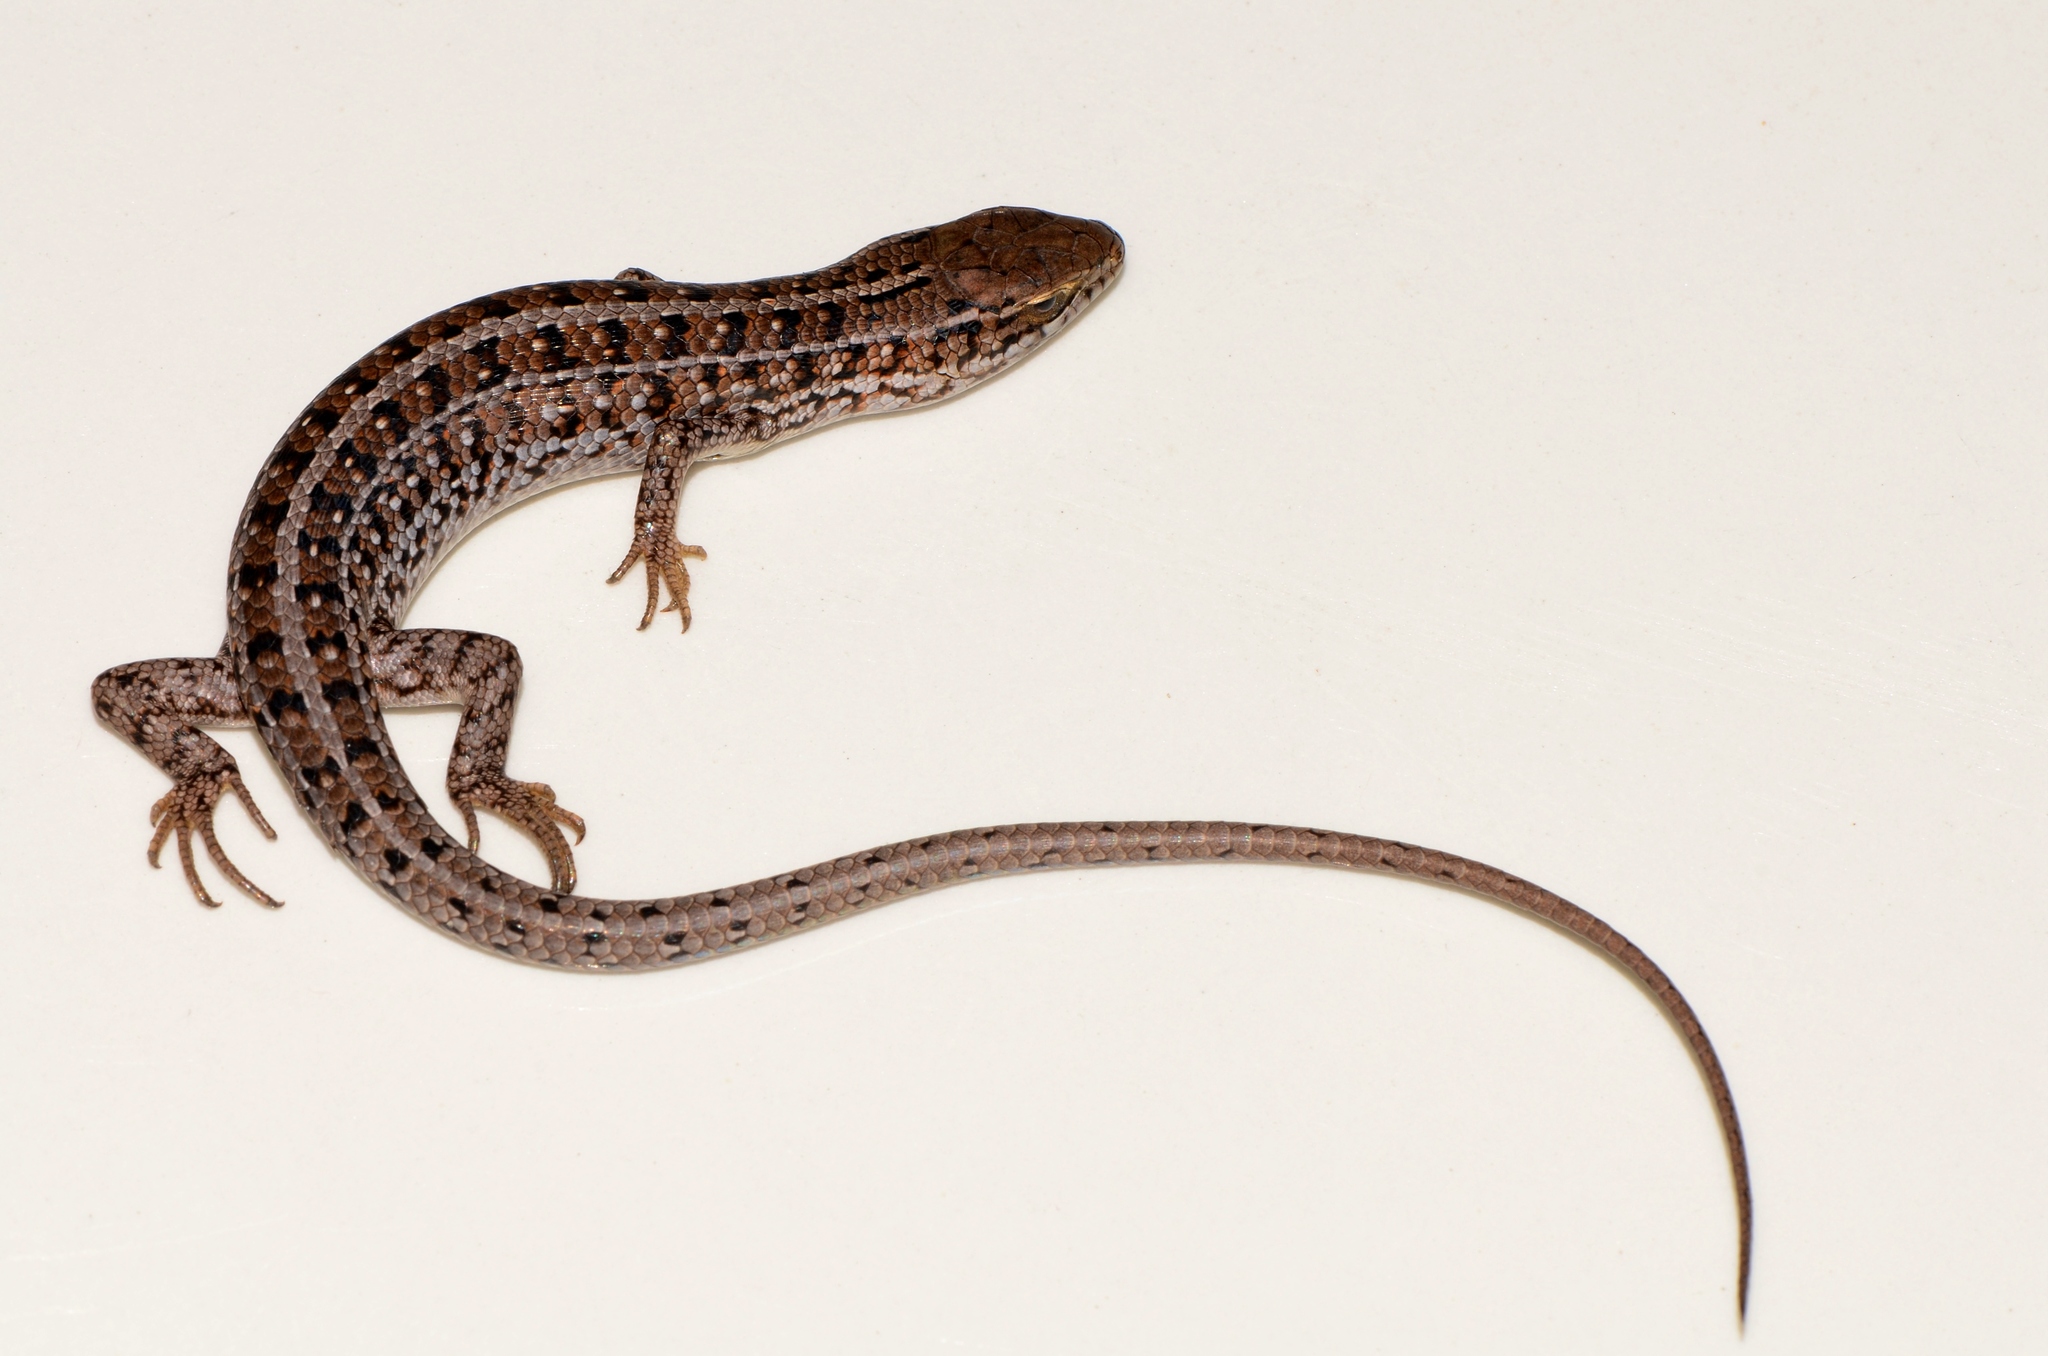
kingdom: Animalia
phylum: Chordata
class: Squamata
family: Scincidae
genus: Trachylepis
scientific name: Trachylepis capensis
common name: Cape skink
